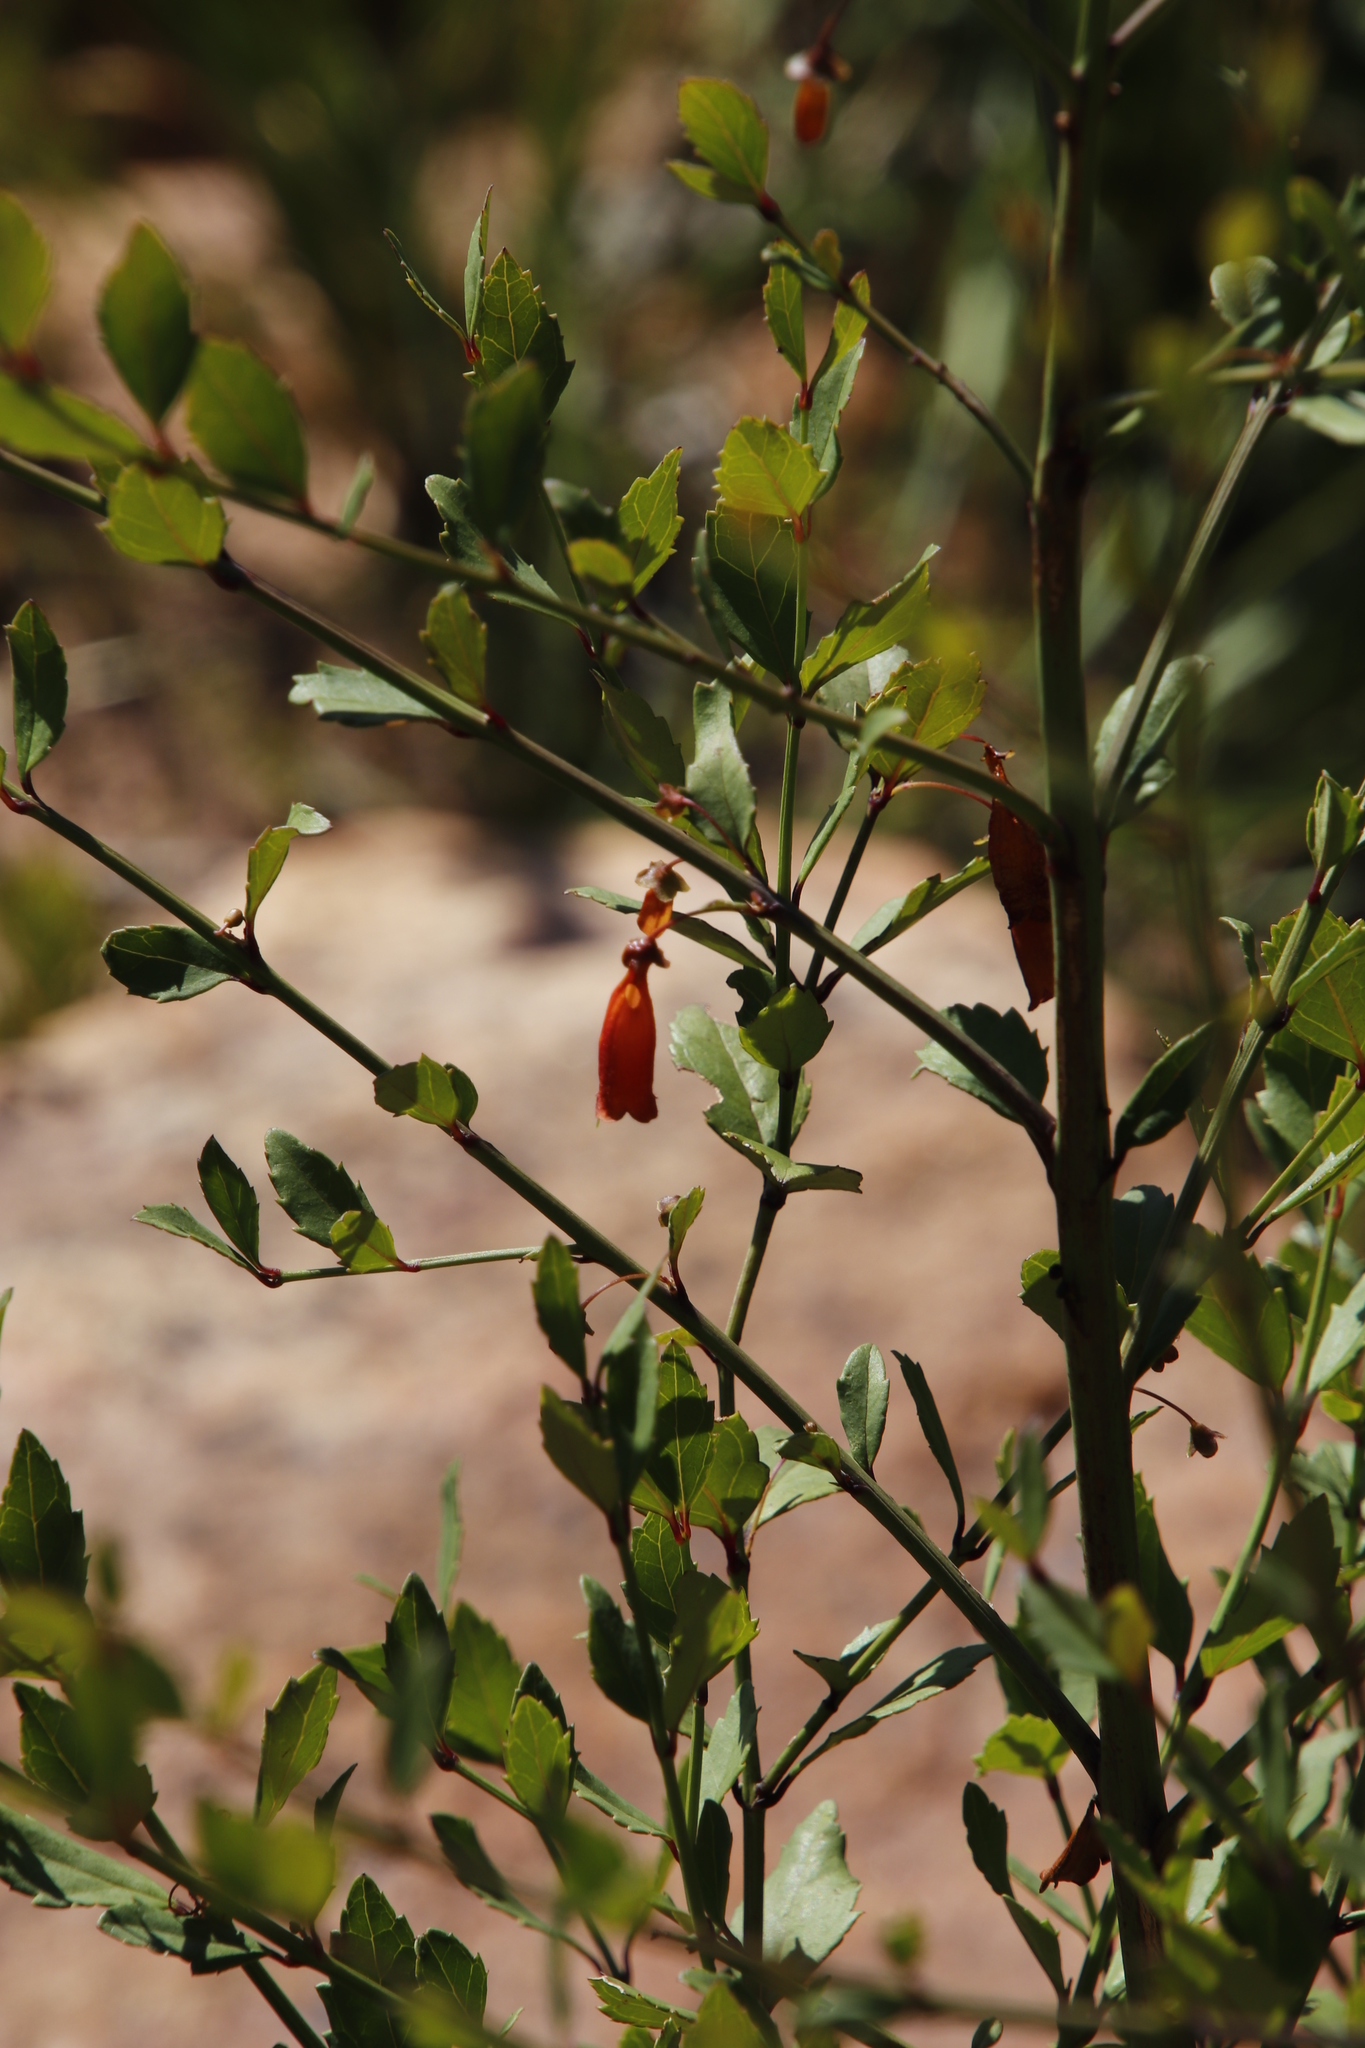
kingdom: Plantae
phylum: Tracheophyta
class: Magnoliopsida
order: Lamiales
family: Stilbaceae
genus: Halleria
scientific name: Halleria elliptica
